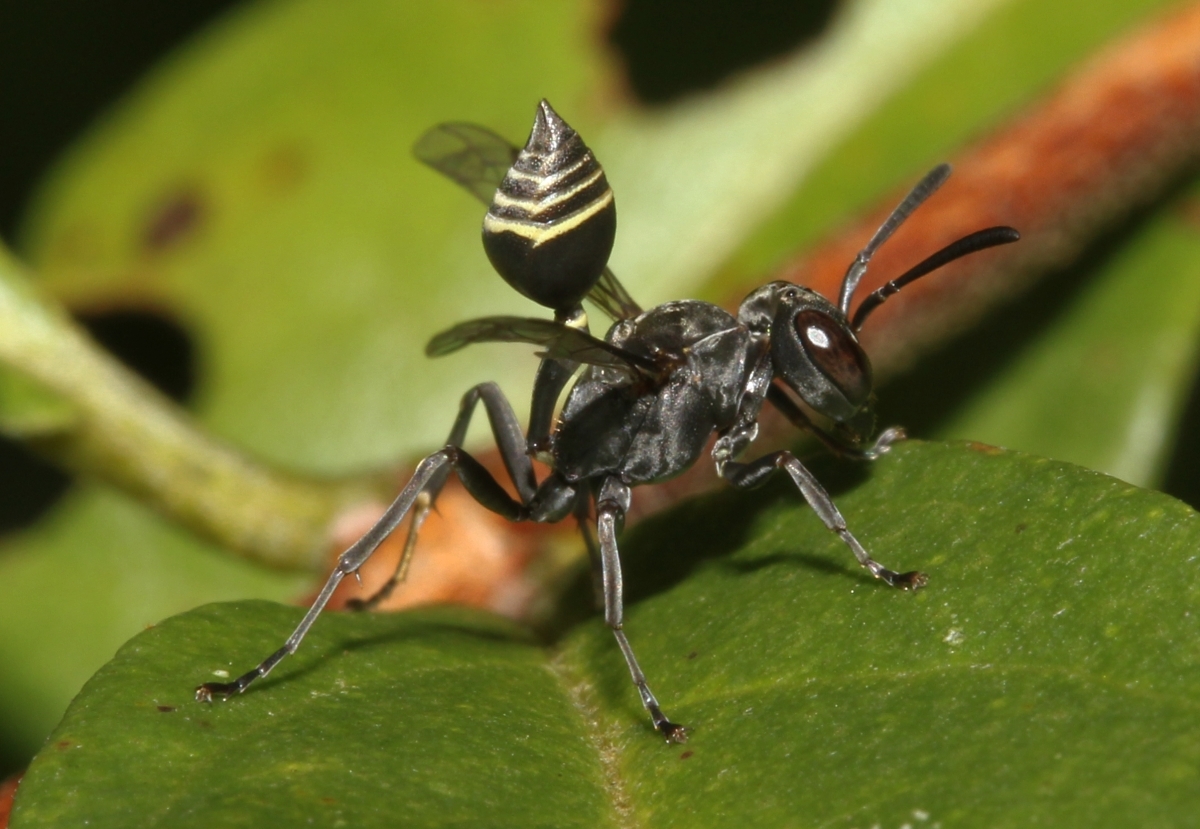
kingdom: Animalia
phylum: Arthropoda
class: Insecta
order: Hymenoptera
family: Vespidae
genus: Metapolybia
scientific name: Metapolybia
